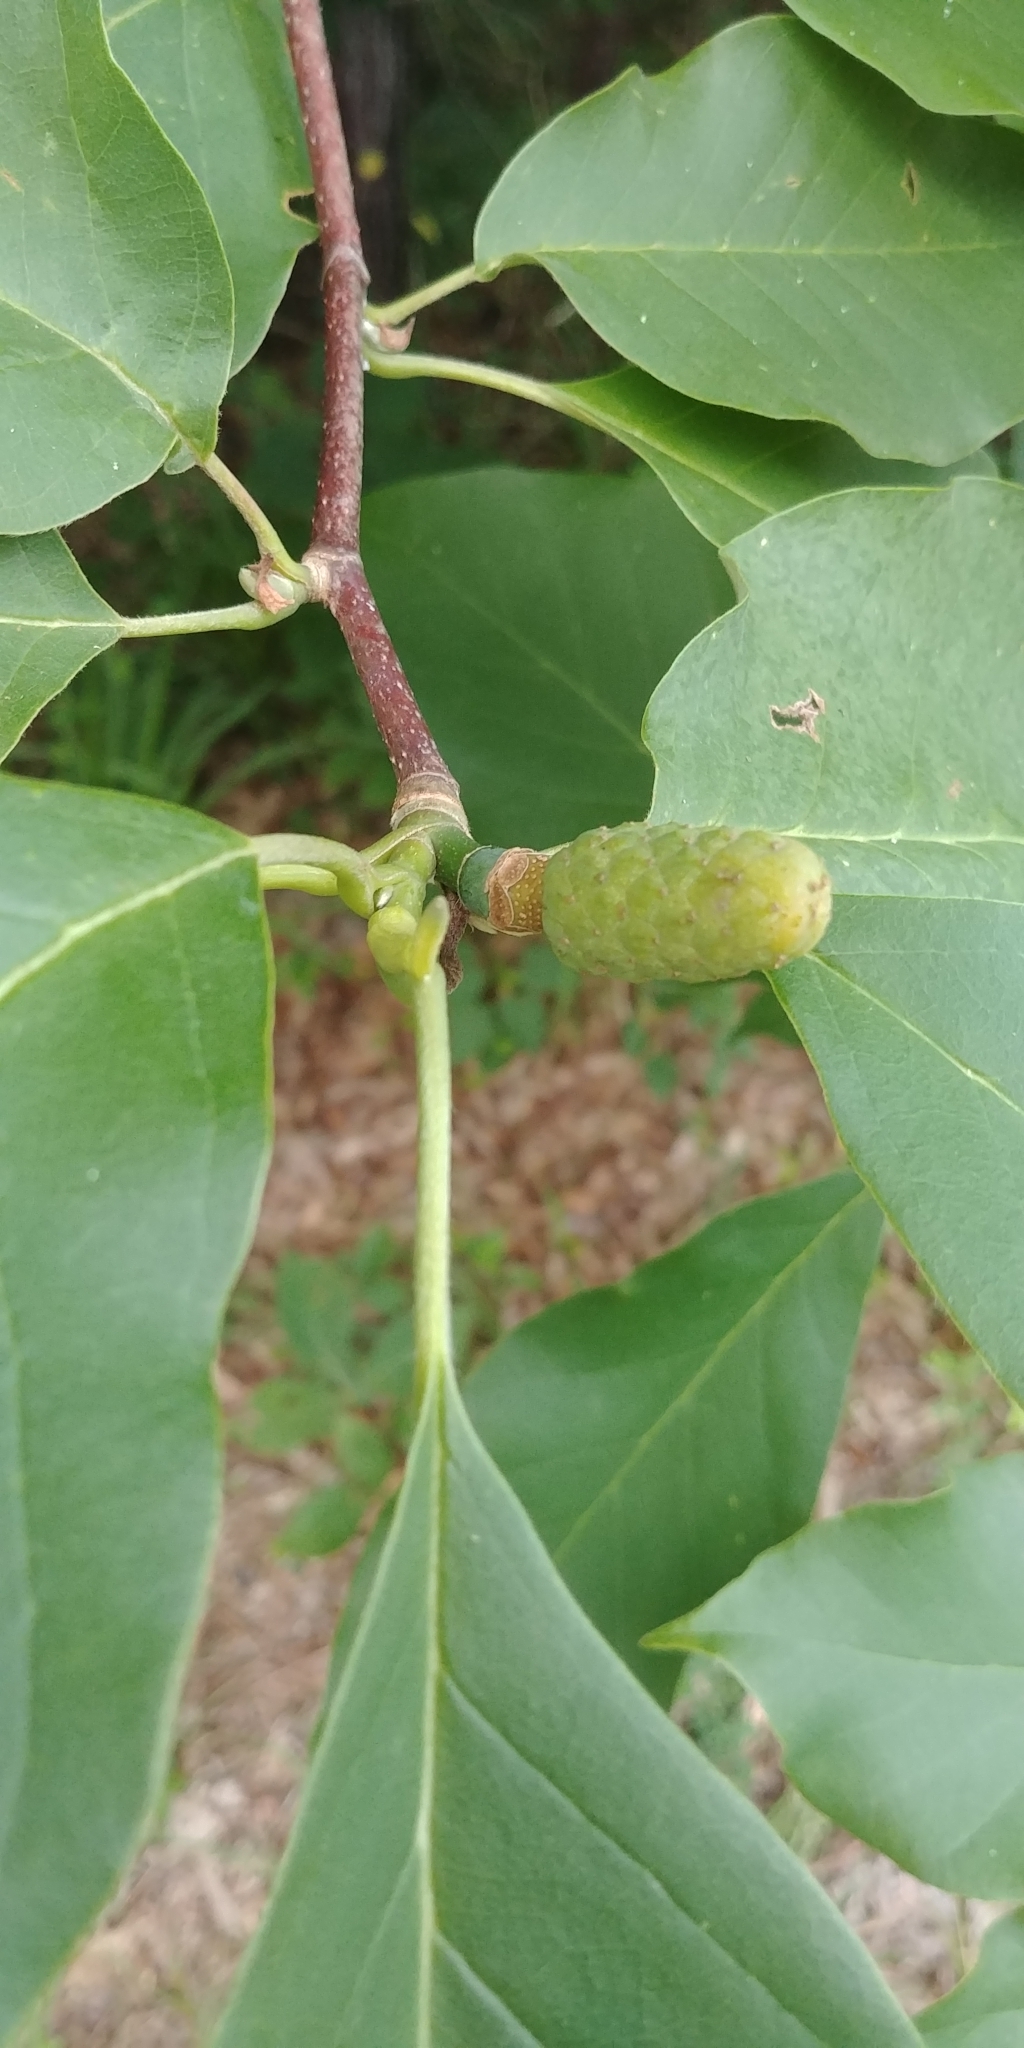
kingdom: Plantae
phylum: Tracheophyta
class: Magnoliopsida
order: Magnoliales
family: Magnoliaceae
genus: Magnolia
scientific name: Magnolia acuminata
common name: Cucumber magnolia
